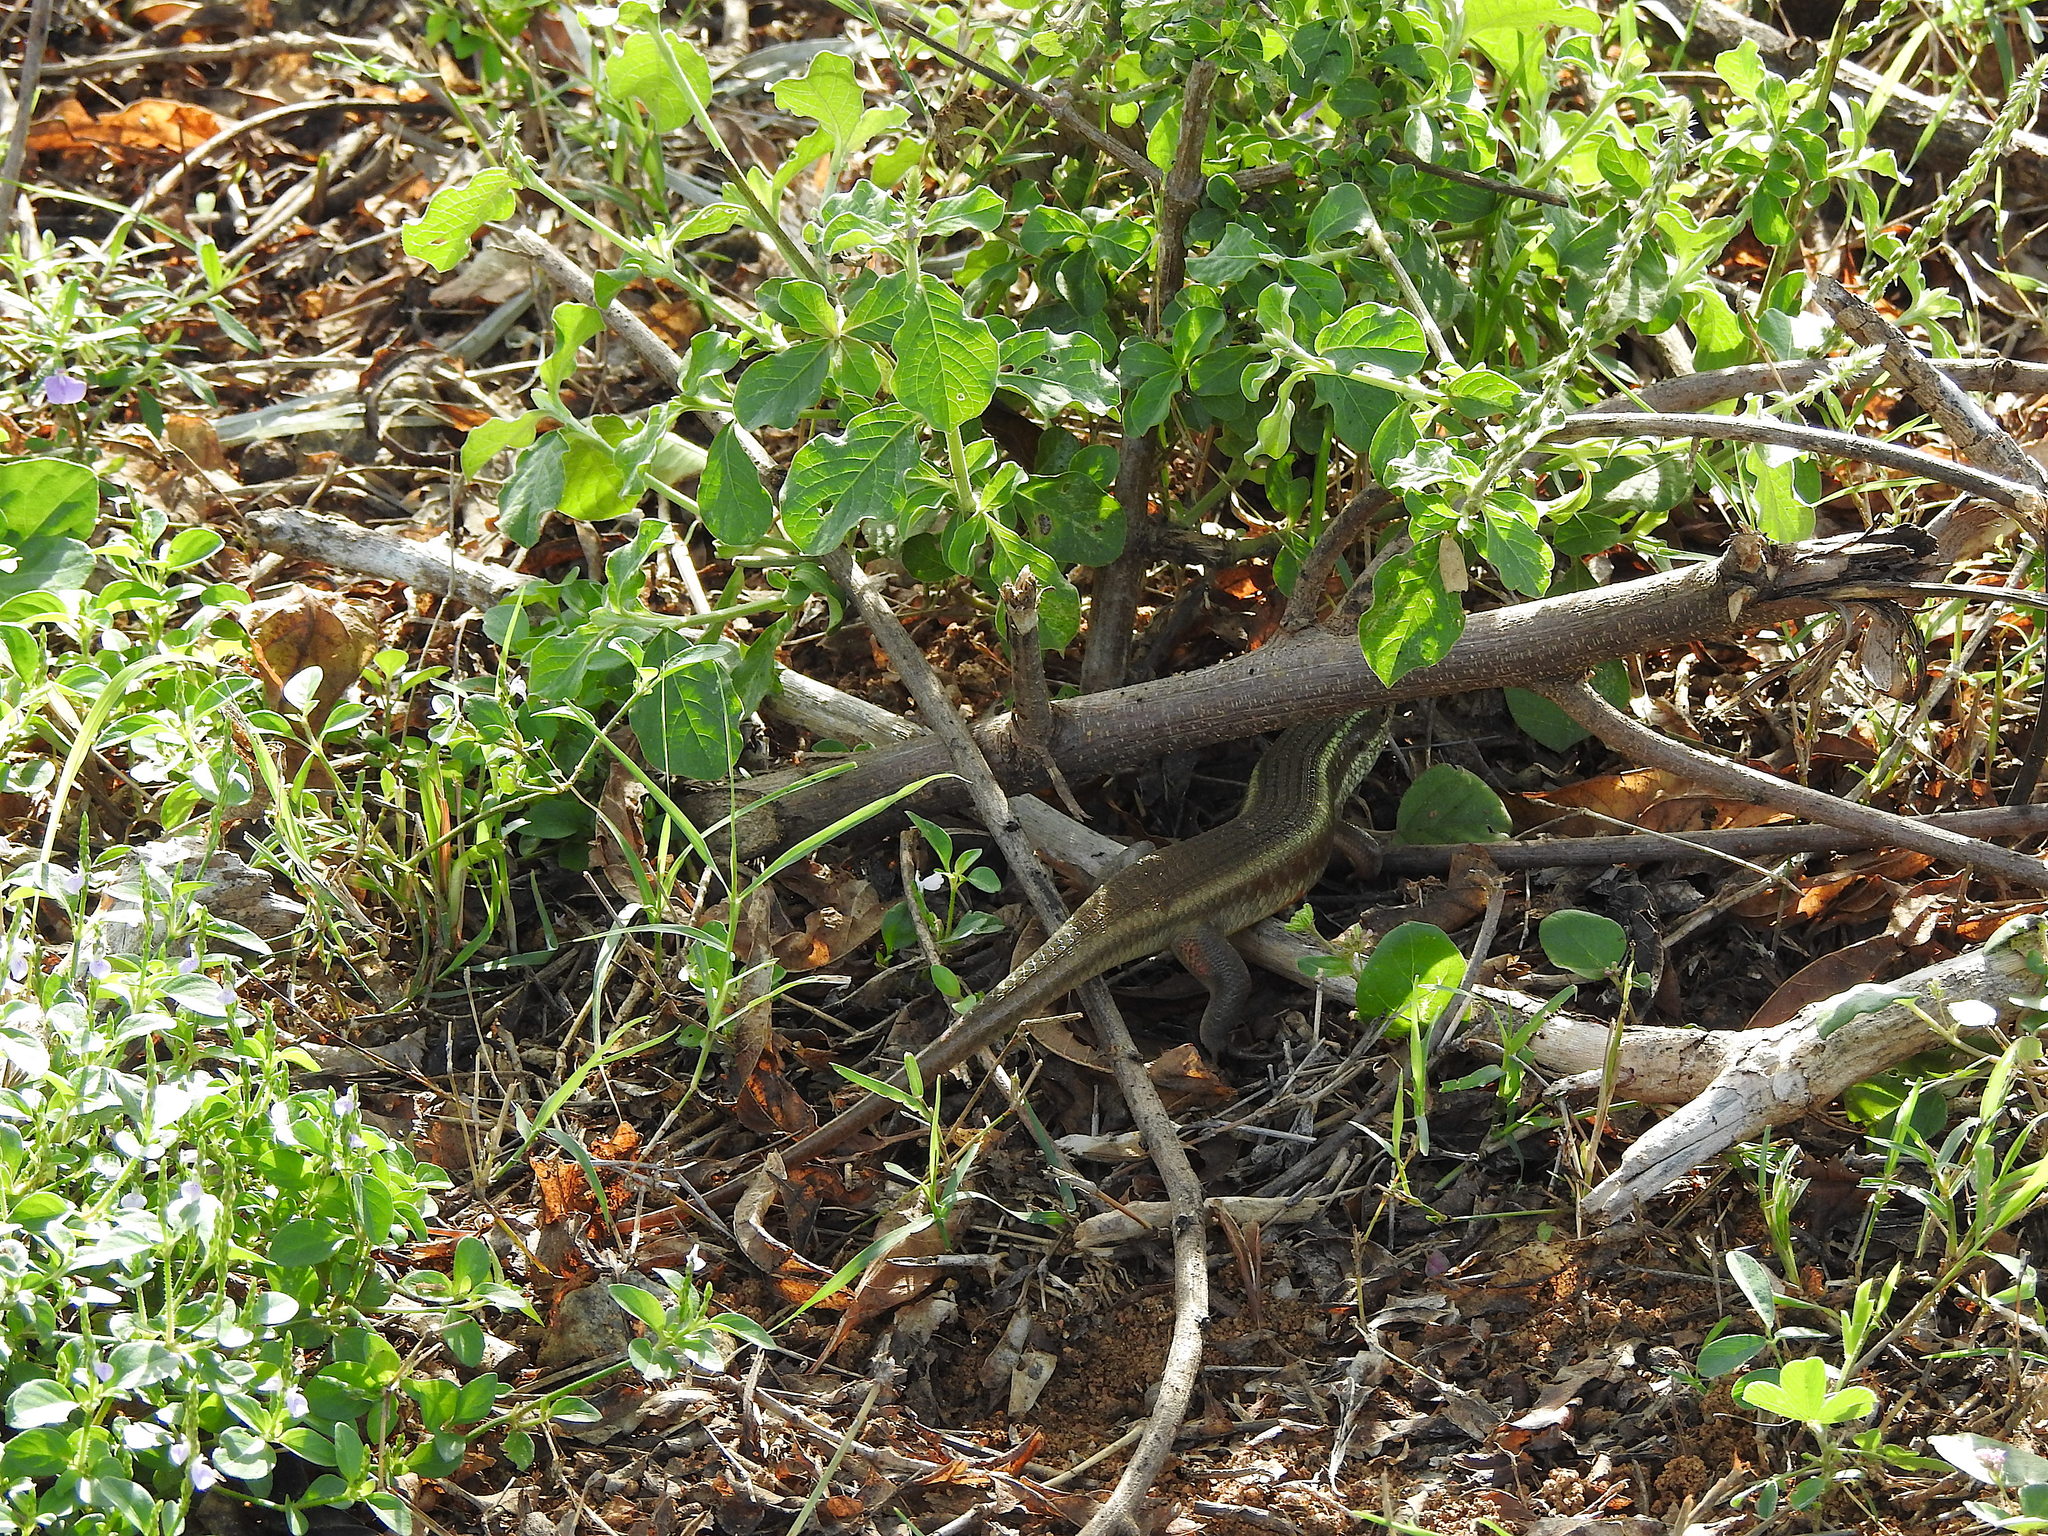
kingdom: Animalia
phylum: Chordata
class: Squamata
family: Scincidae
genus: Eutropis
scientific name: Eutropis carinata
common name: Keeled indian mabuya
